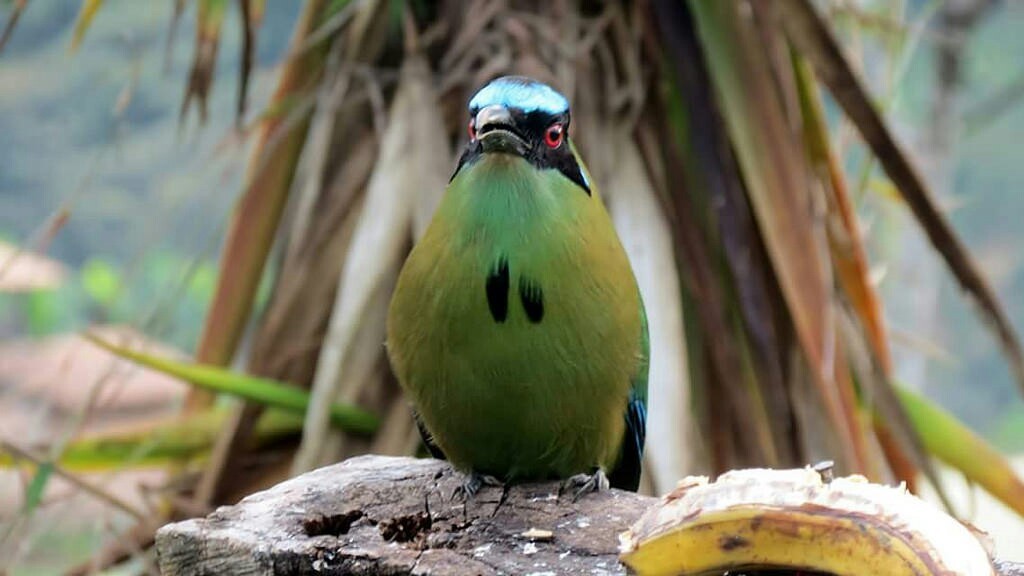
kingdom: Animalia
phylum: Chordata
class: Aves
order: Coraciiformes
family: Momotidae
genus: Momotus
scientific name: Momotus aequatorialis
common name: Andean motmot
